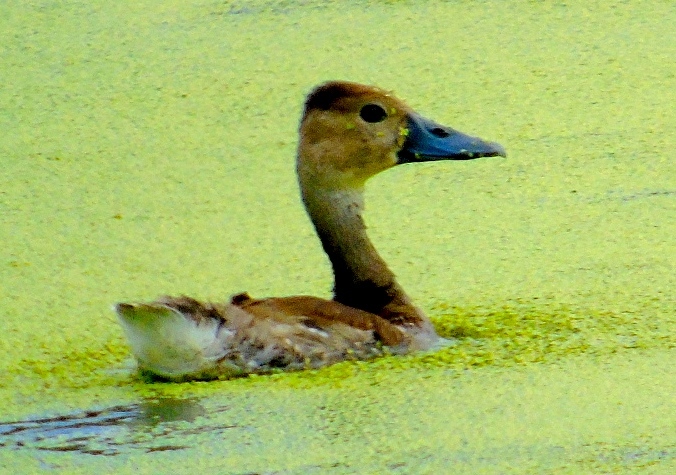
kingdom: Animalia
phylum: Chordata
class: Aves
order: Anseriformes
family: Anatidae
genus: Dendrocygna
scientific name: Dendrocygna bicolor
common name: Fulvous whistling duck
